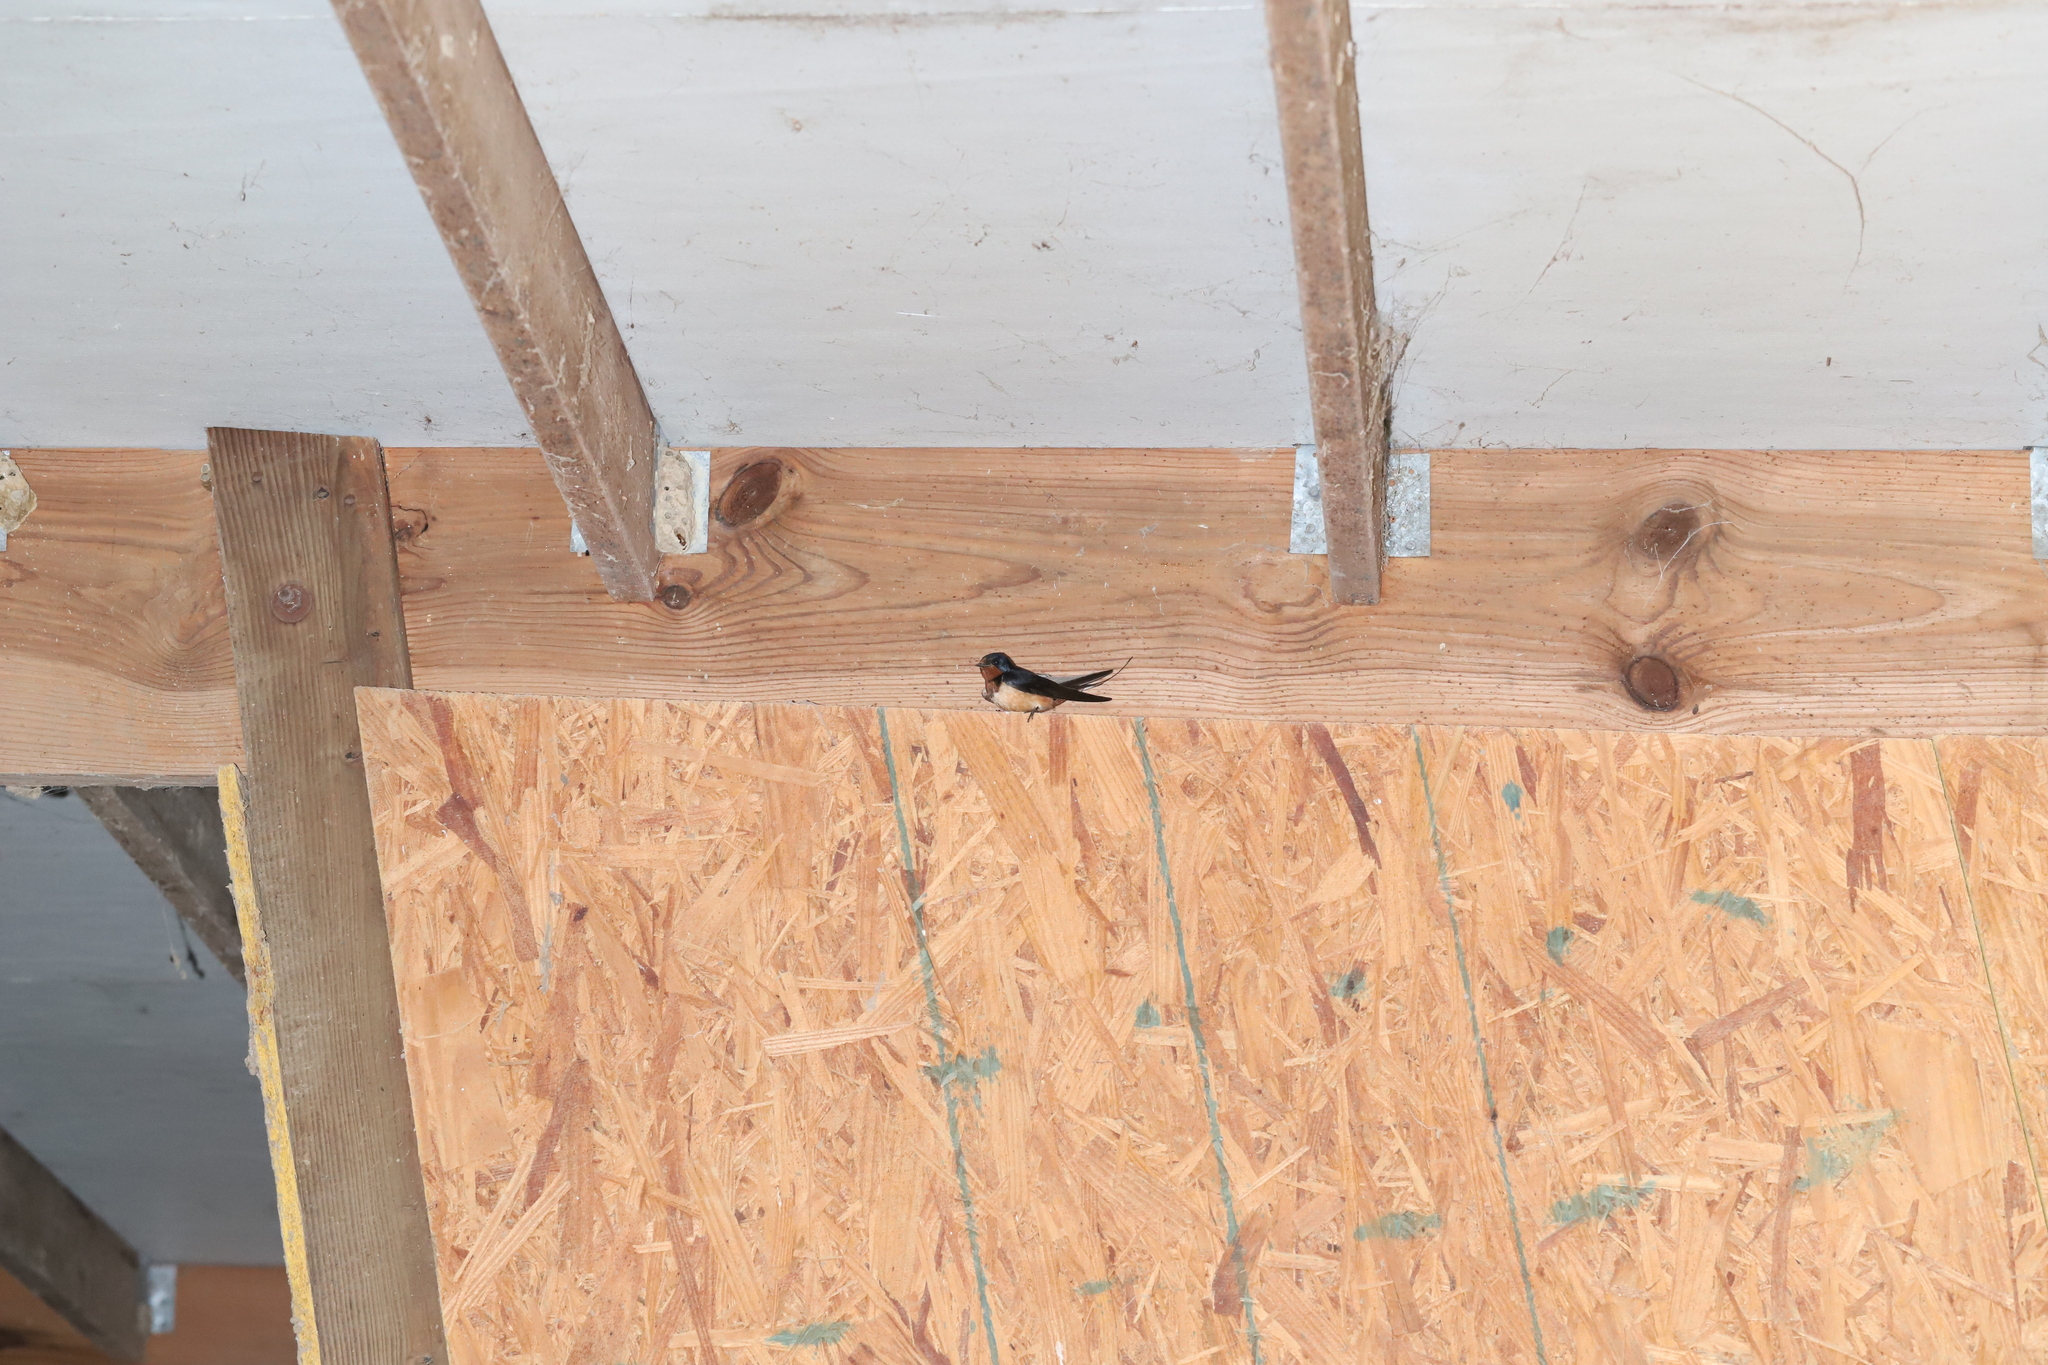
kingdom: Animalia
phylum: Chordata
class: Aves
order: Passeriformes
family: Hirundinidae
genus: Hirundo
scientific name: Hirundo rustica
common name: Barn swallow
